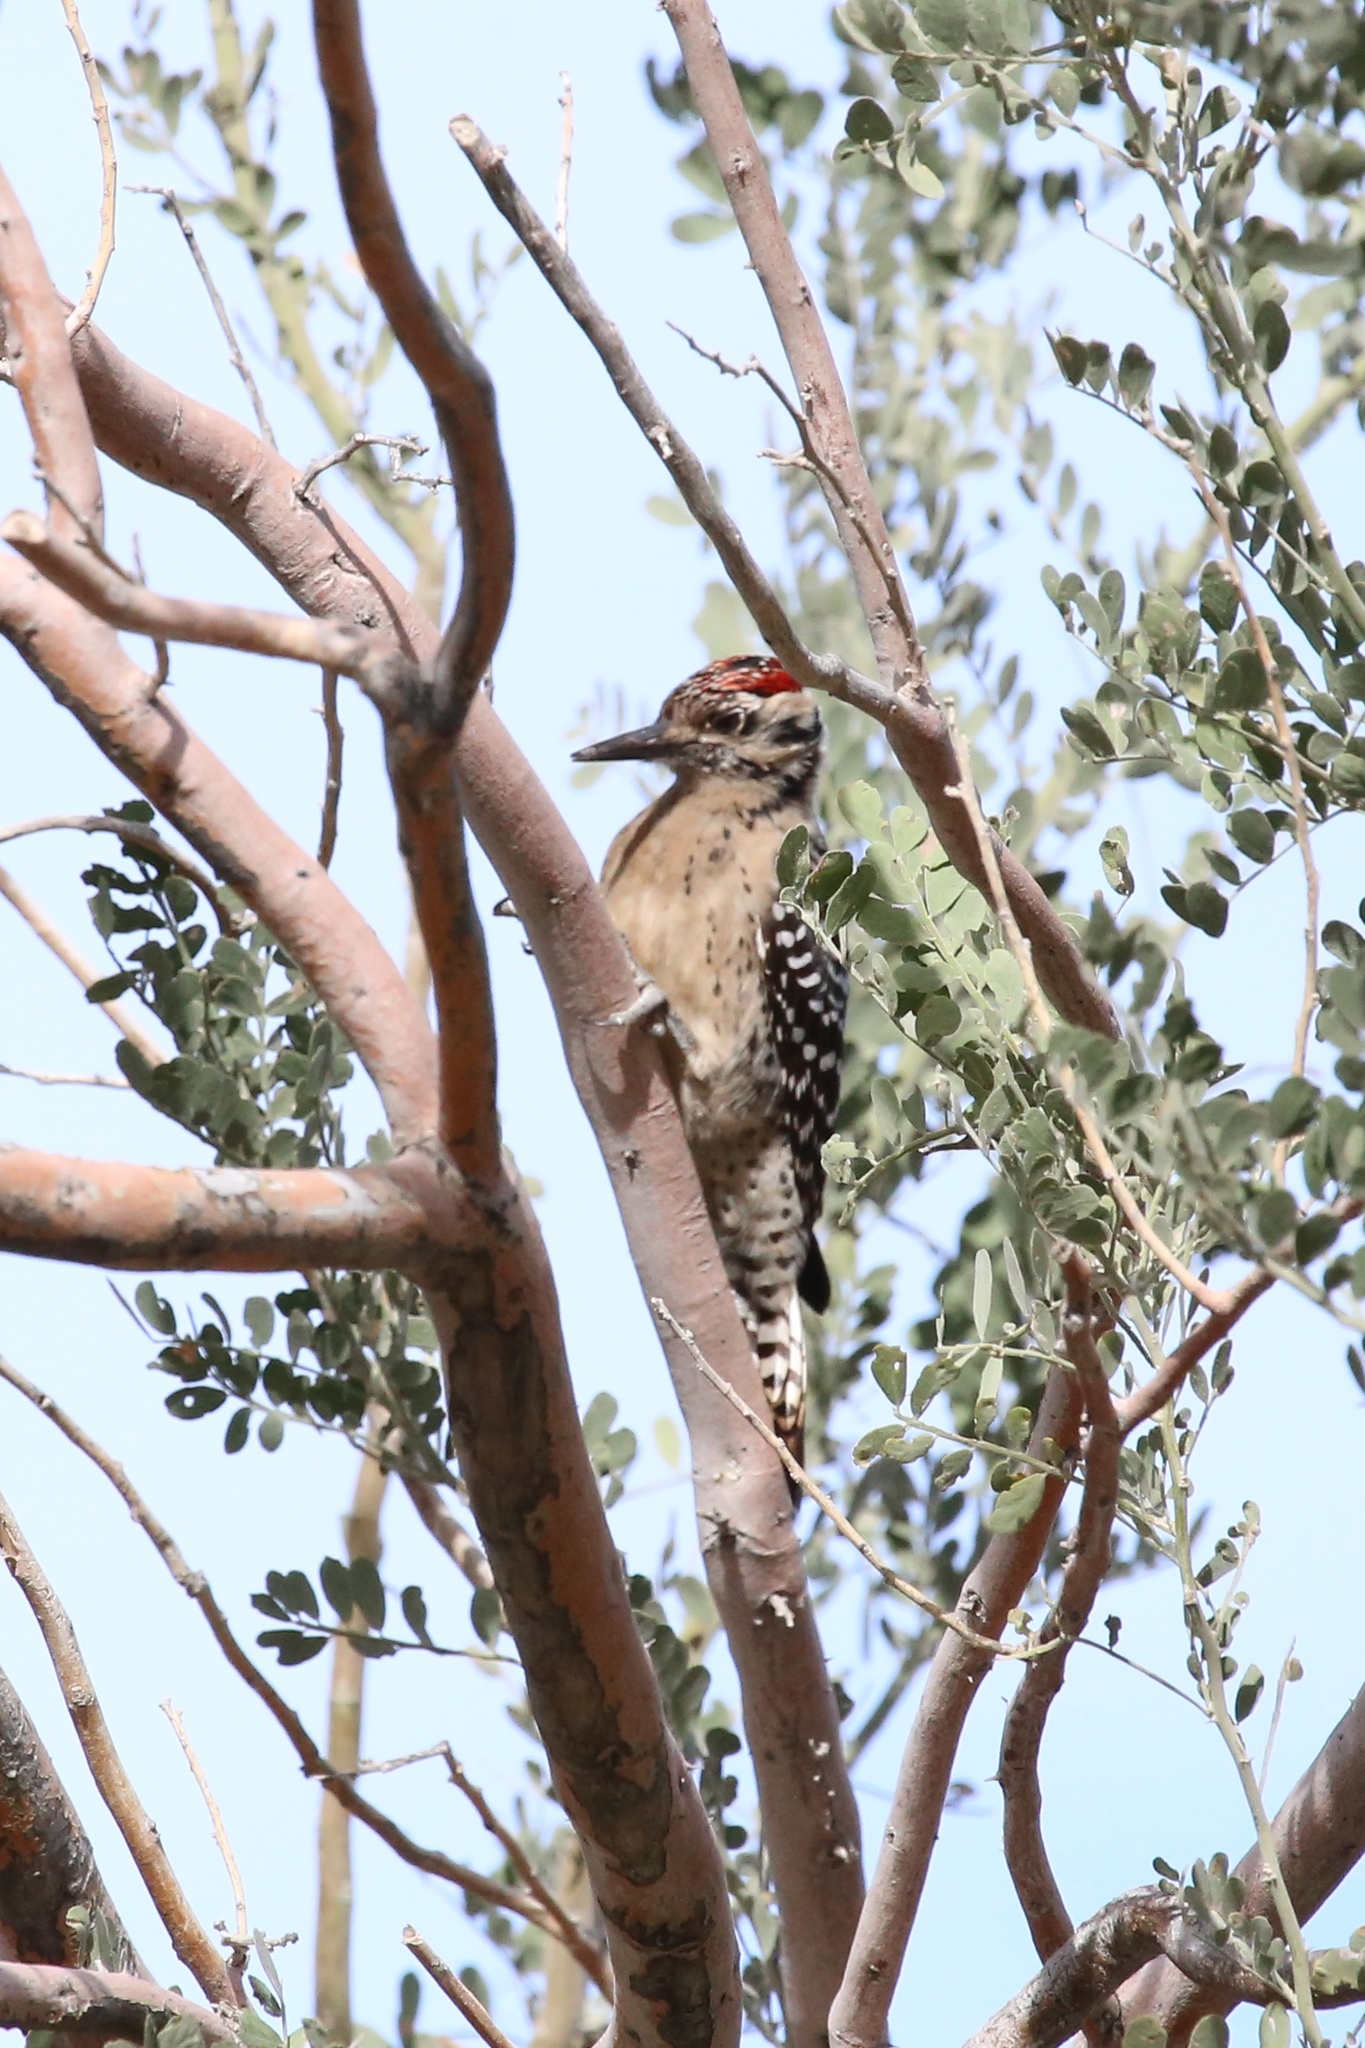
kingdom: Animalia
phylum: Chordata
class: Aves
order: Piciformes
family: Picidae
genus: Dryobates
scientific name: Dryobates scalaris
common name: Ladder-backed woodpecker
